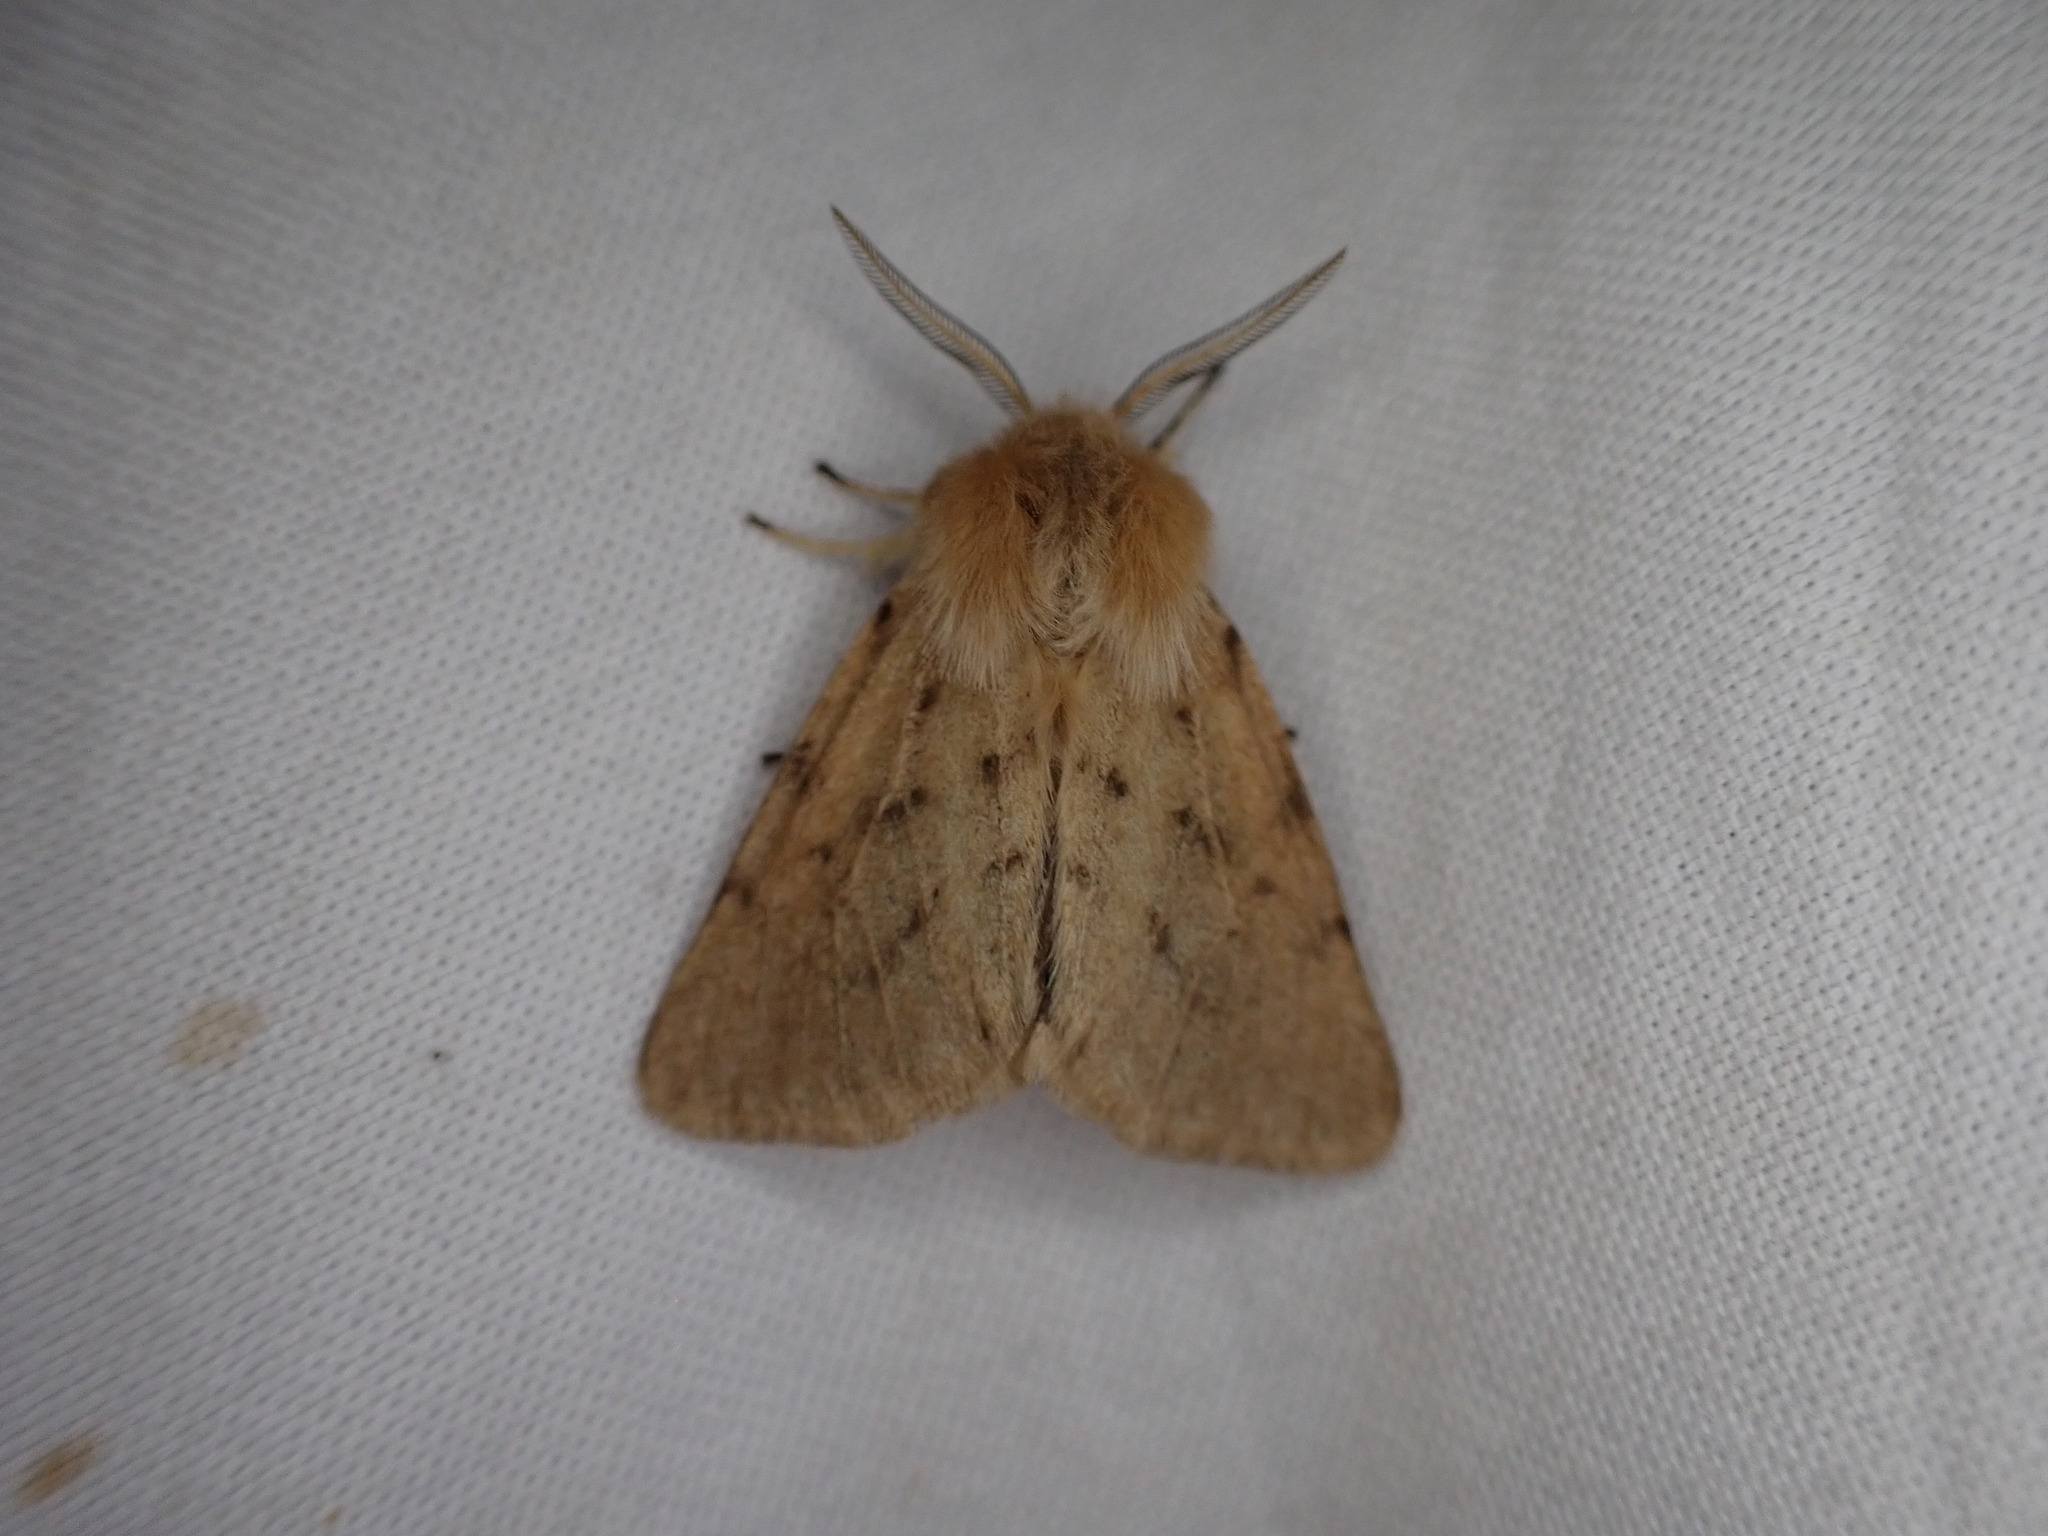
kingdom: Animalia
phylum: Arthropoda
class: Insecta
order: Lepidoptera
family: Erebidae
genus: Spilosoma
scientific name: Spilosoma vagans
